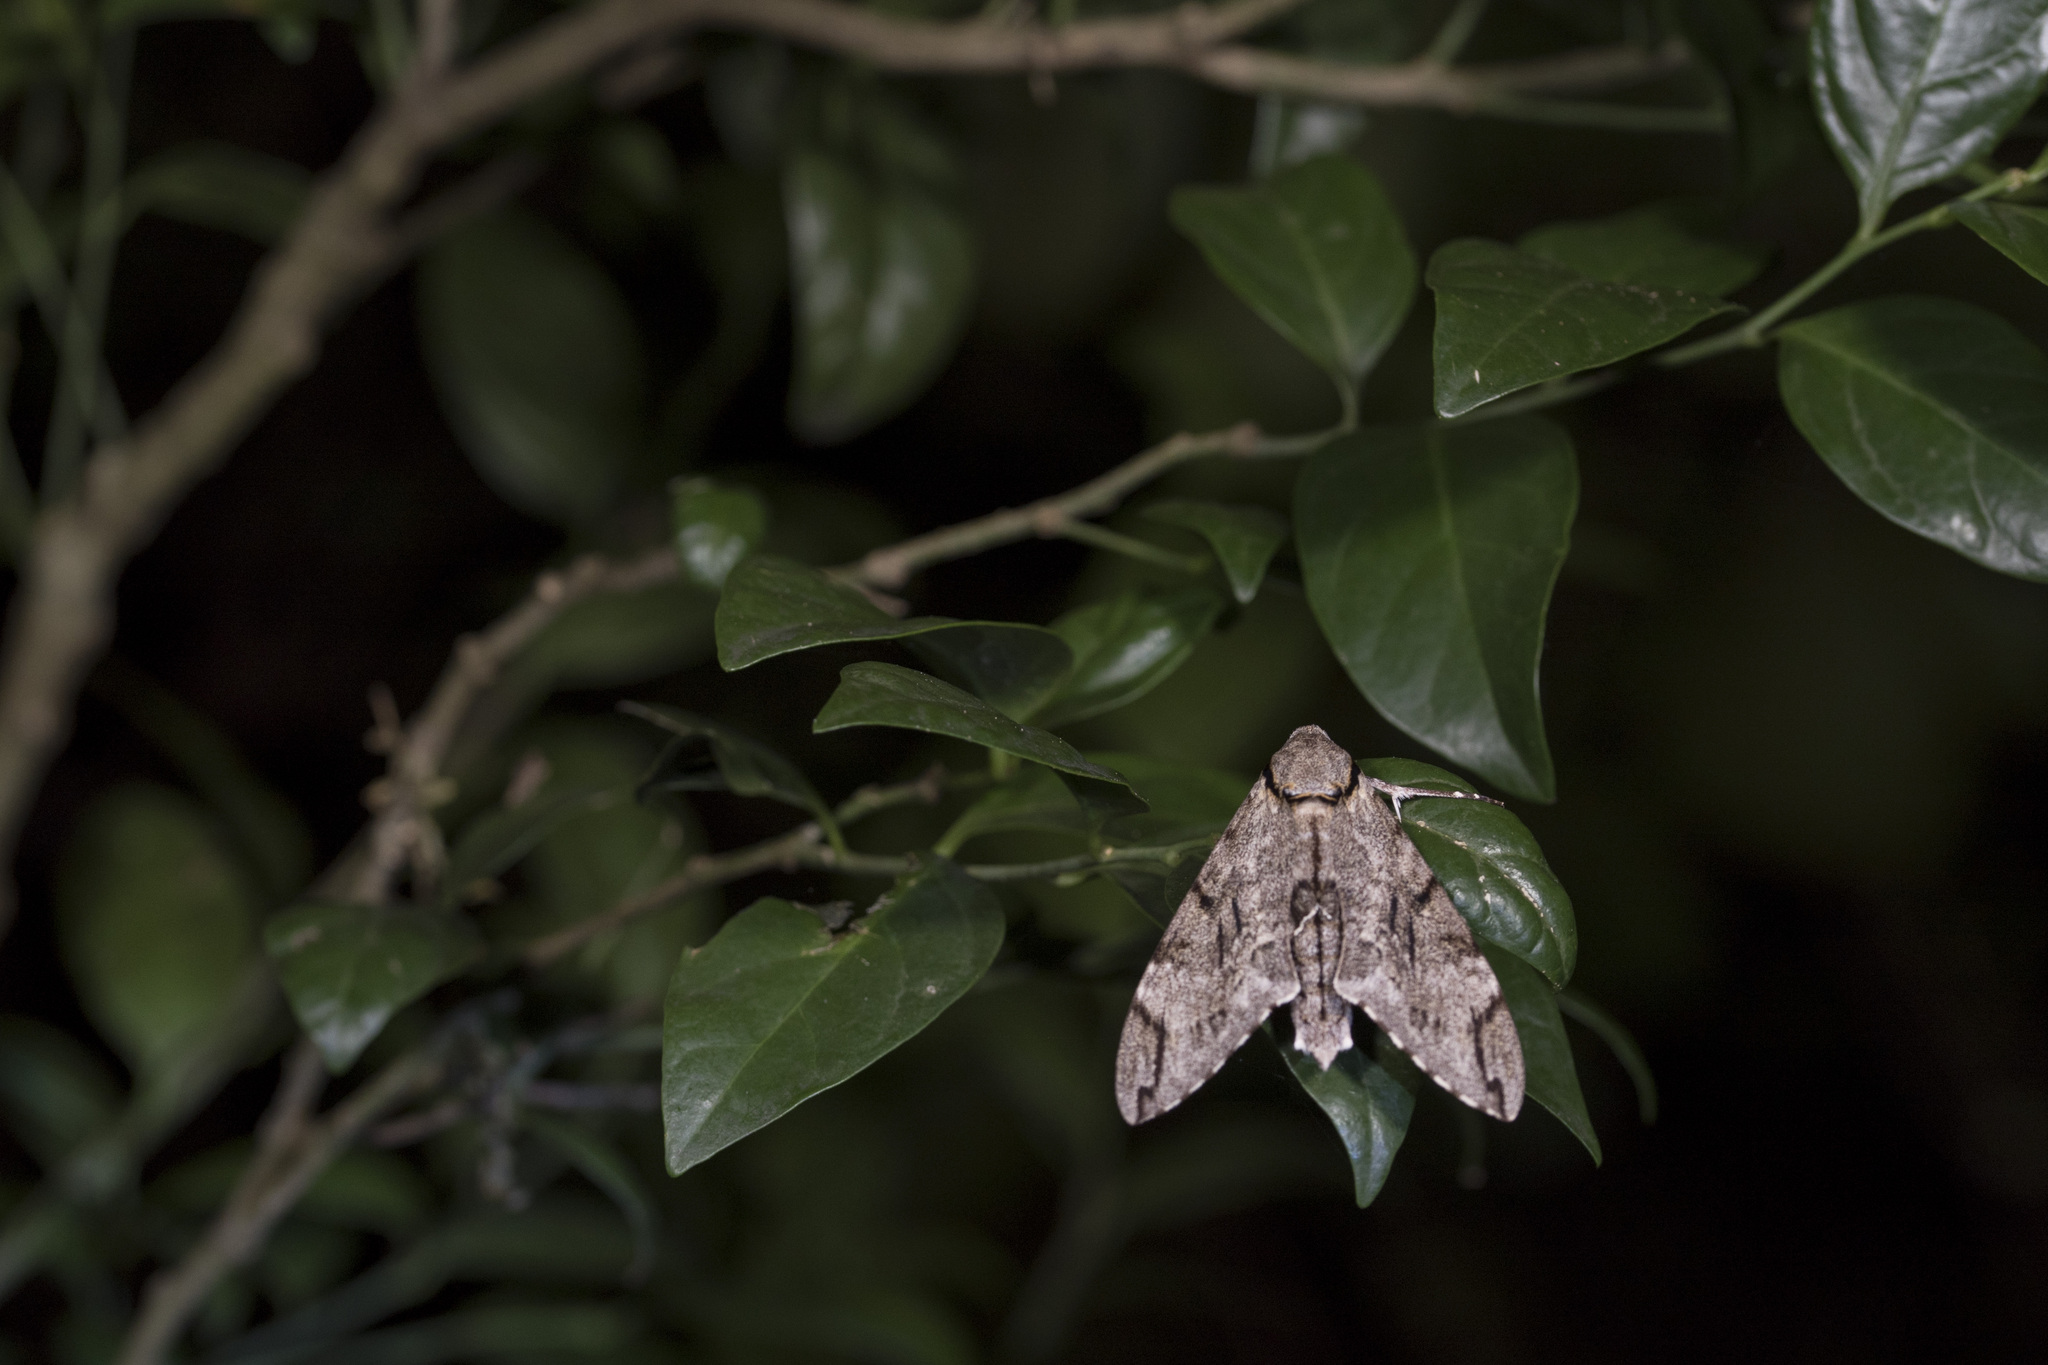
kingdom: Animalia
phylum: Arthropoda
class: Insecta
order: Lepidoptera
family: Sphingidae
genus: Psilogramma
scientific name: Psilogramma increta
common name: Gray hawk moth
